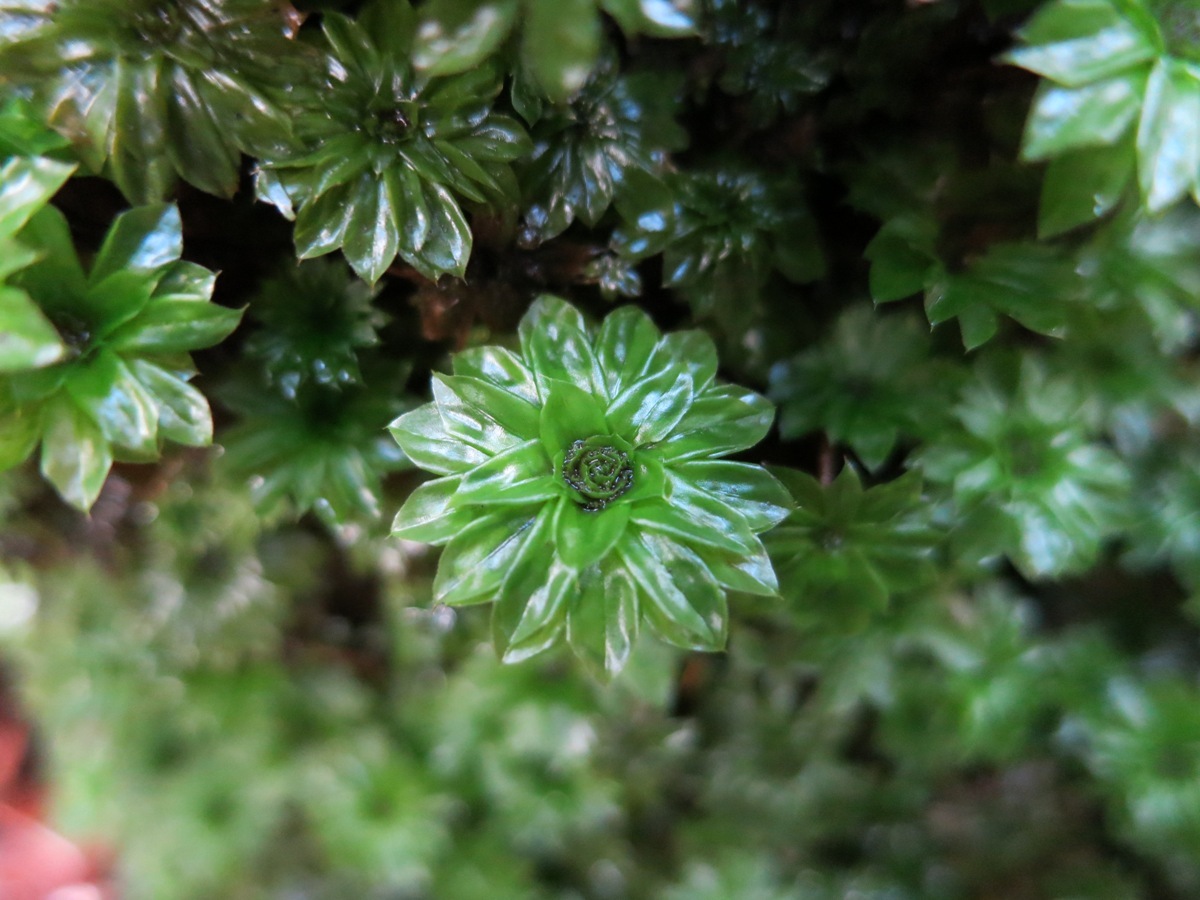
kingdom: Plantae
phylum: Bryophyta
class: Bryopsida
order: Bryales
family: Bryaceae
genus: Rhodobryum
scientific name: Rhodobryum ontariense
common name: Ontario rhodobryum moss
